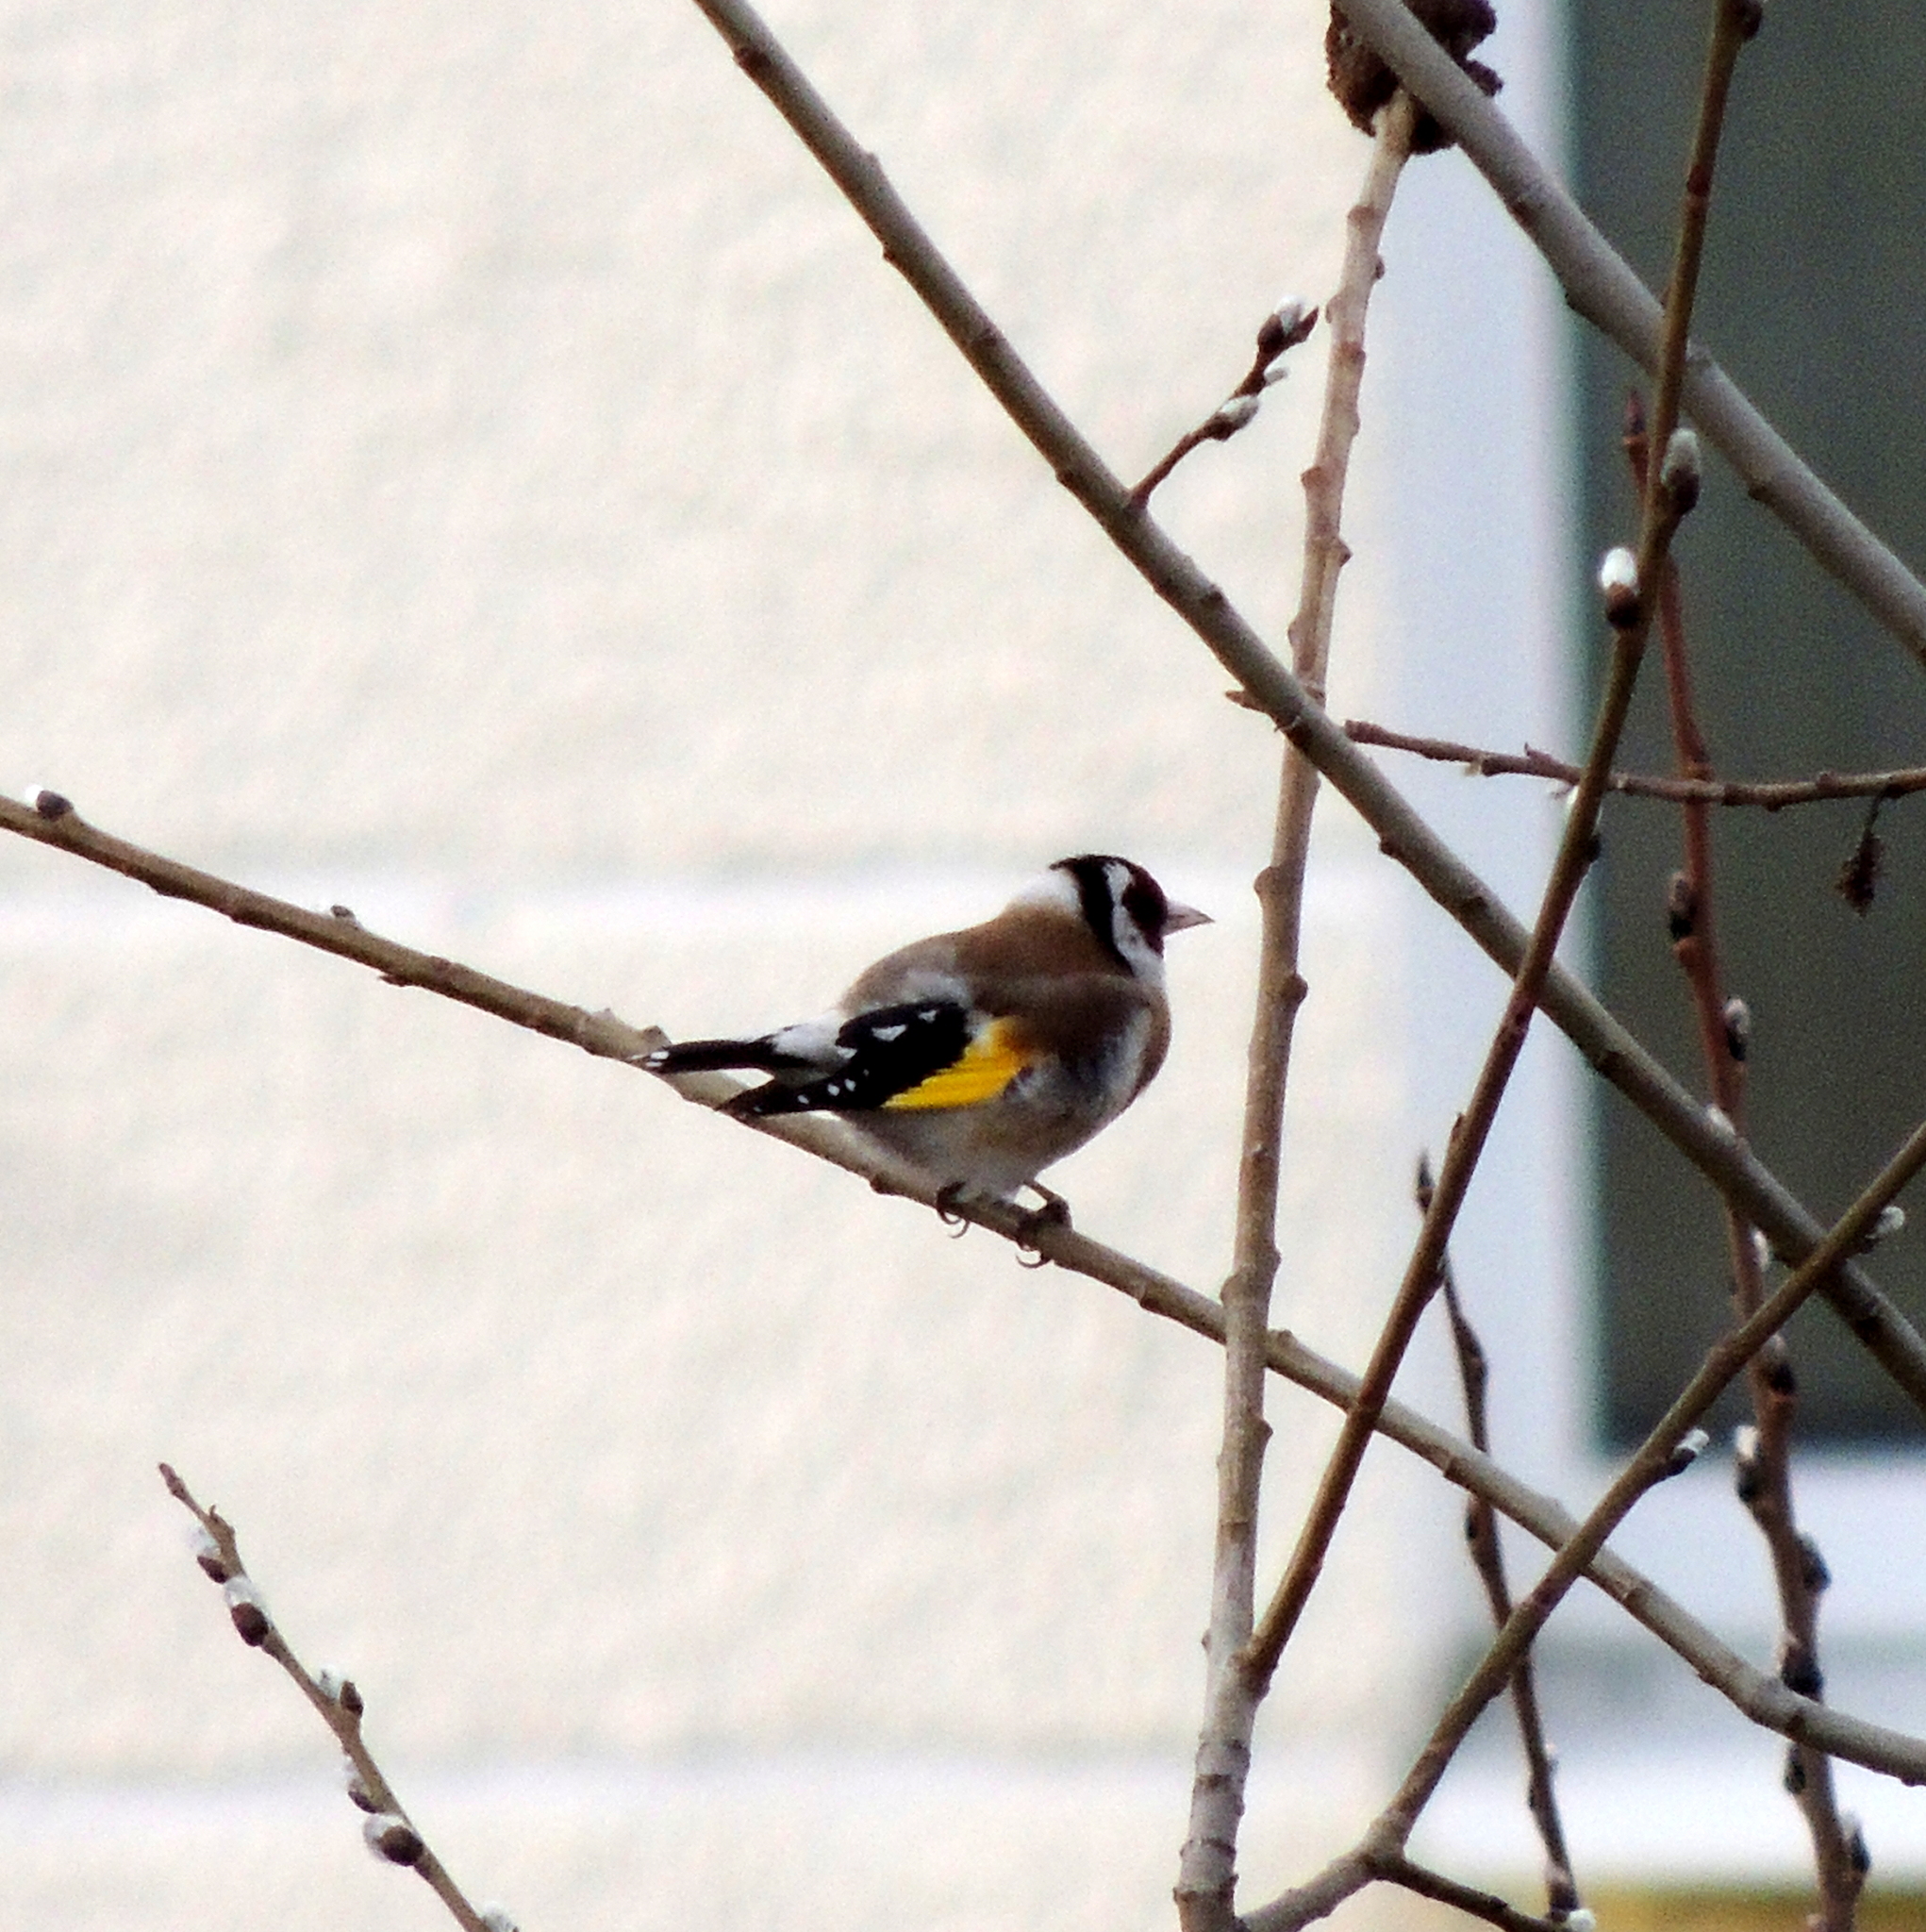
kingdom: Animalia
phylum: Chordata
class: Aves
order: Passeriformes
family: Fringillidae
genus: Carduelis
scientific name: Carduelis carduelis
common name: European goldfinch
